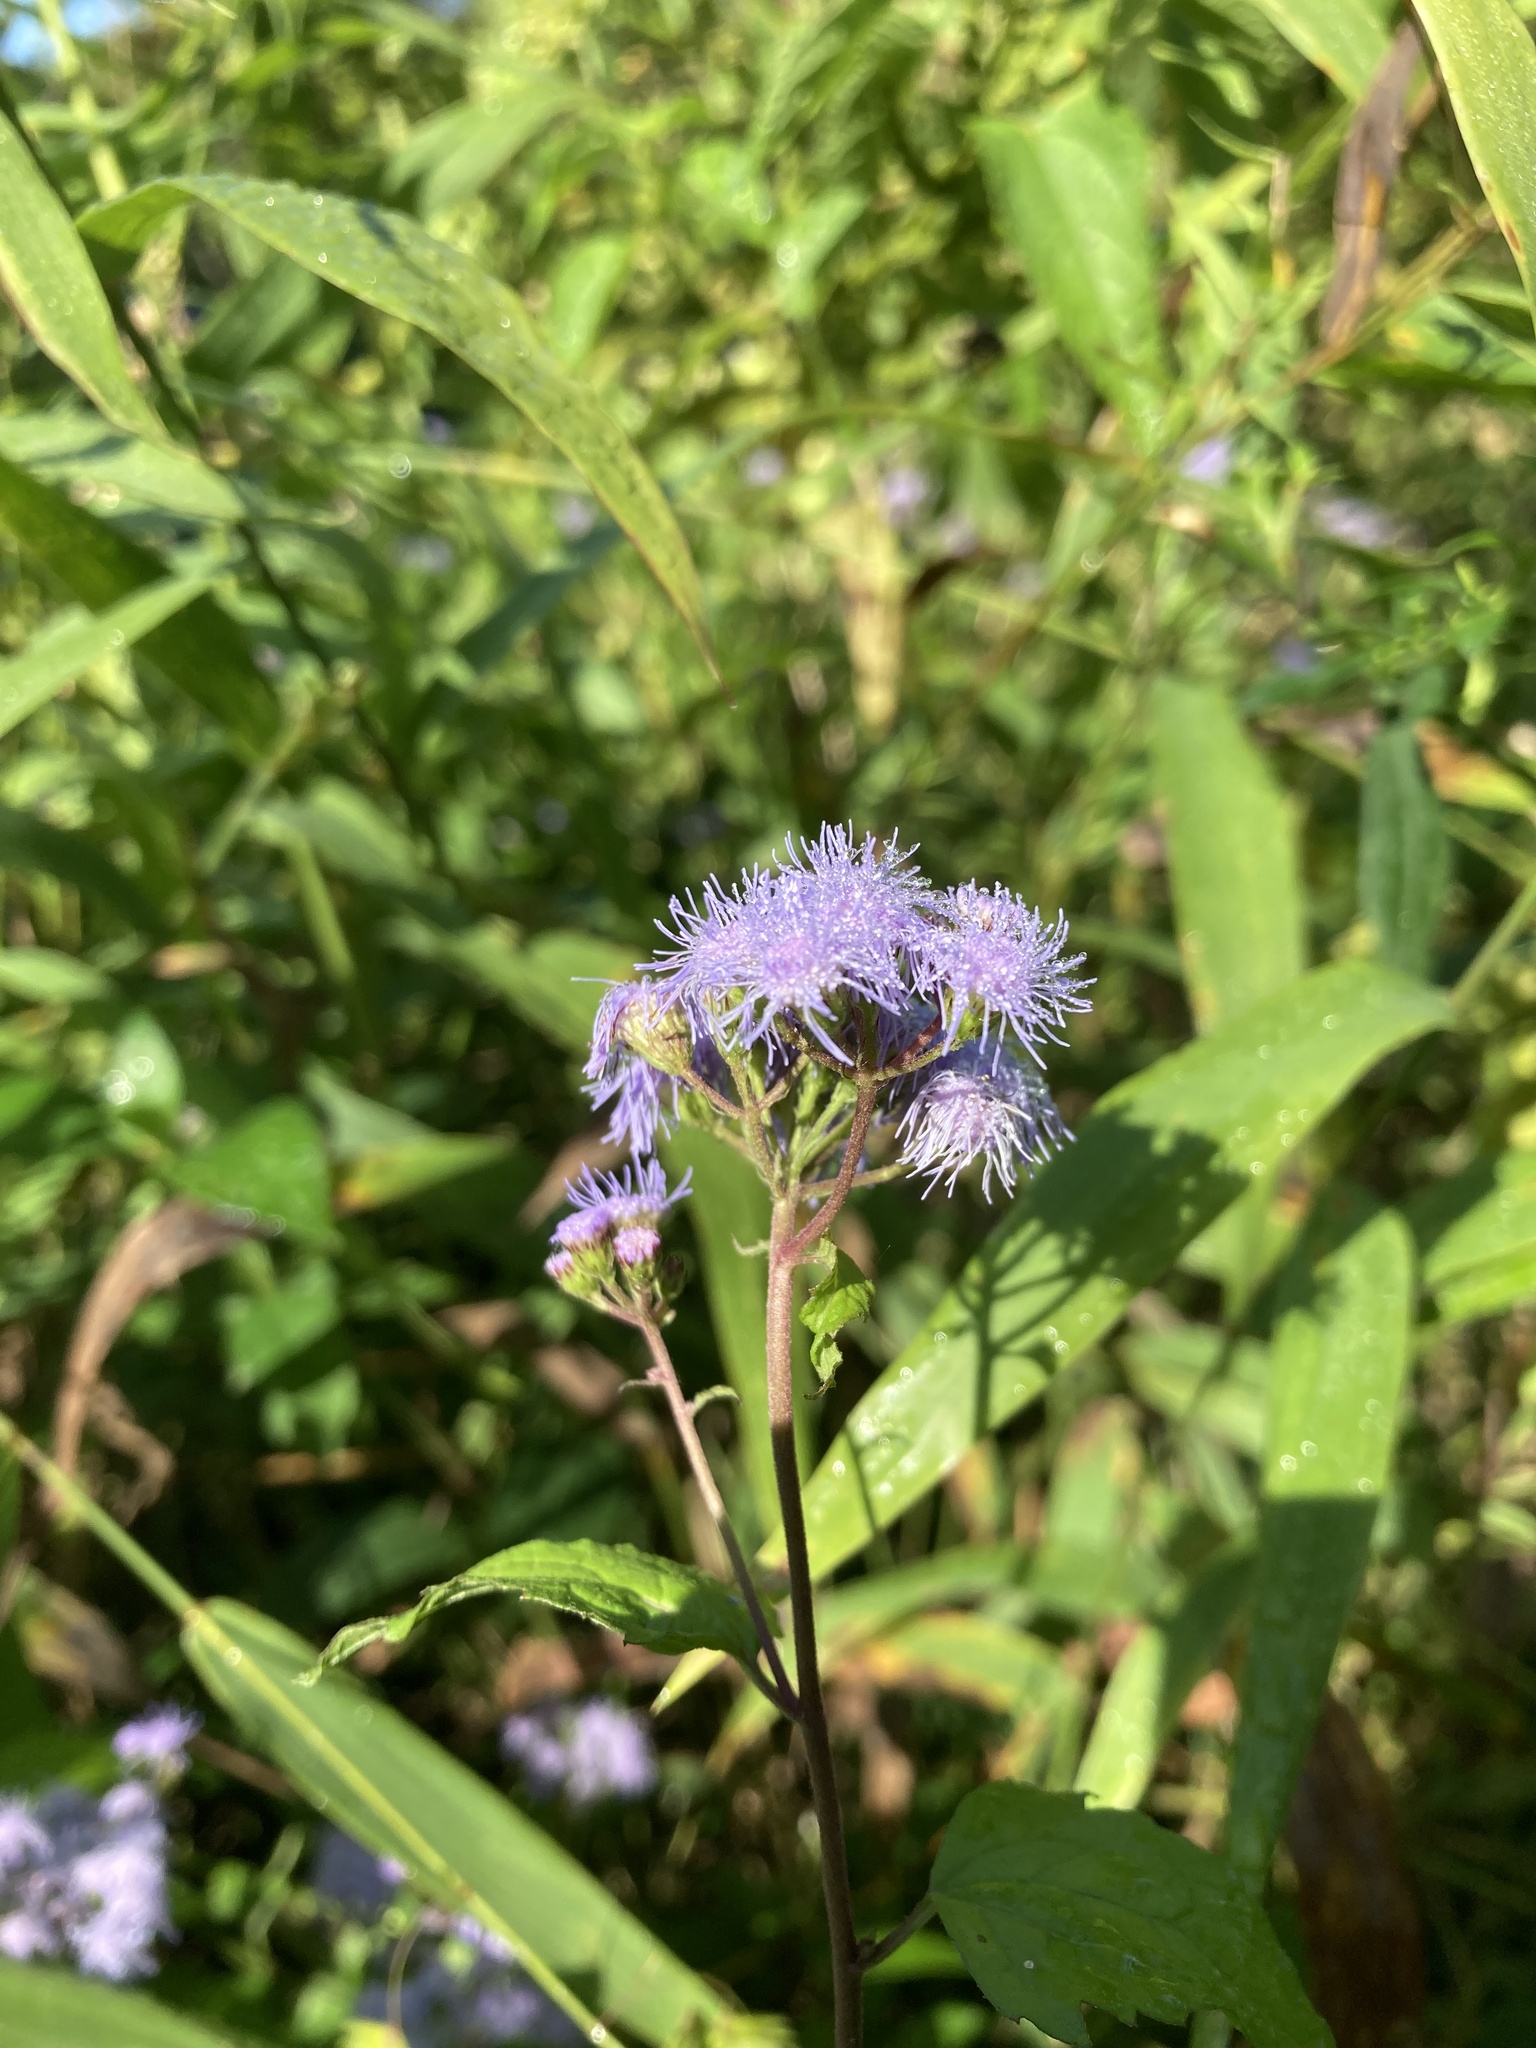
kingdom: Plantae
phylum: Tracheophyta
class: Magnoliopsida
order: Asterales
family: Asteraceae
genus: Conoclinium
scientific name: Conoclinium coelestinum
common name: Blue mistflower
